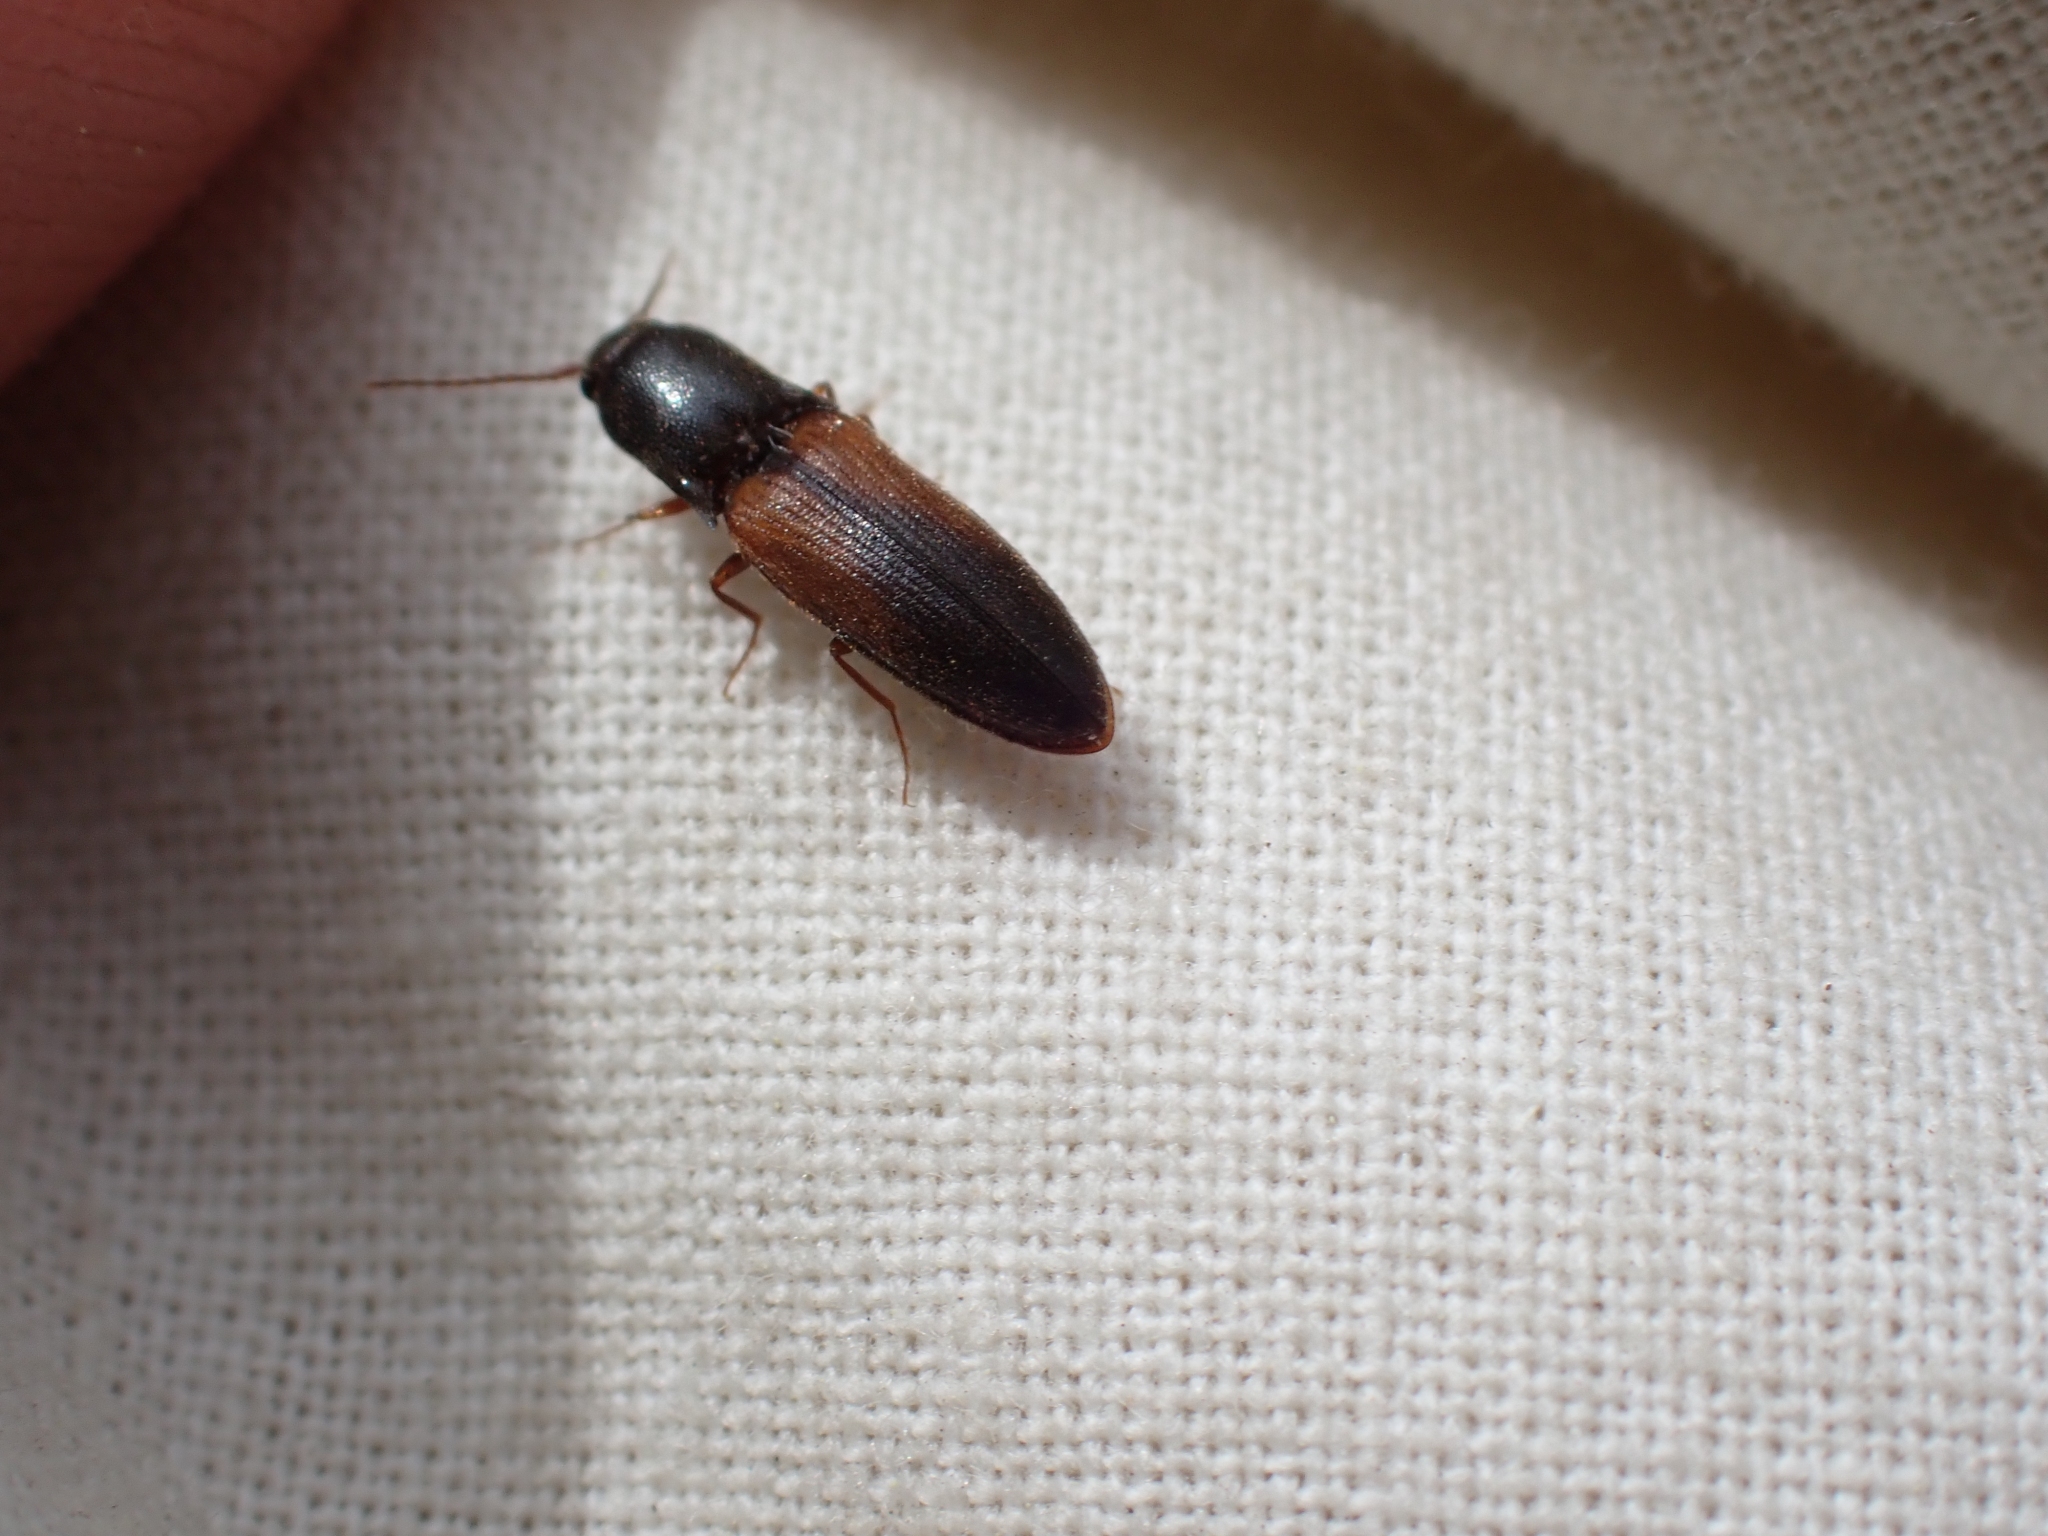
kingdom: Animalia
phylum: Arthropoda
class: Insecta
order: Coleoptera
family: Elateridae
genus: Agriotes
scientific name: Agriotes thevenetii
